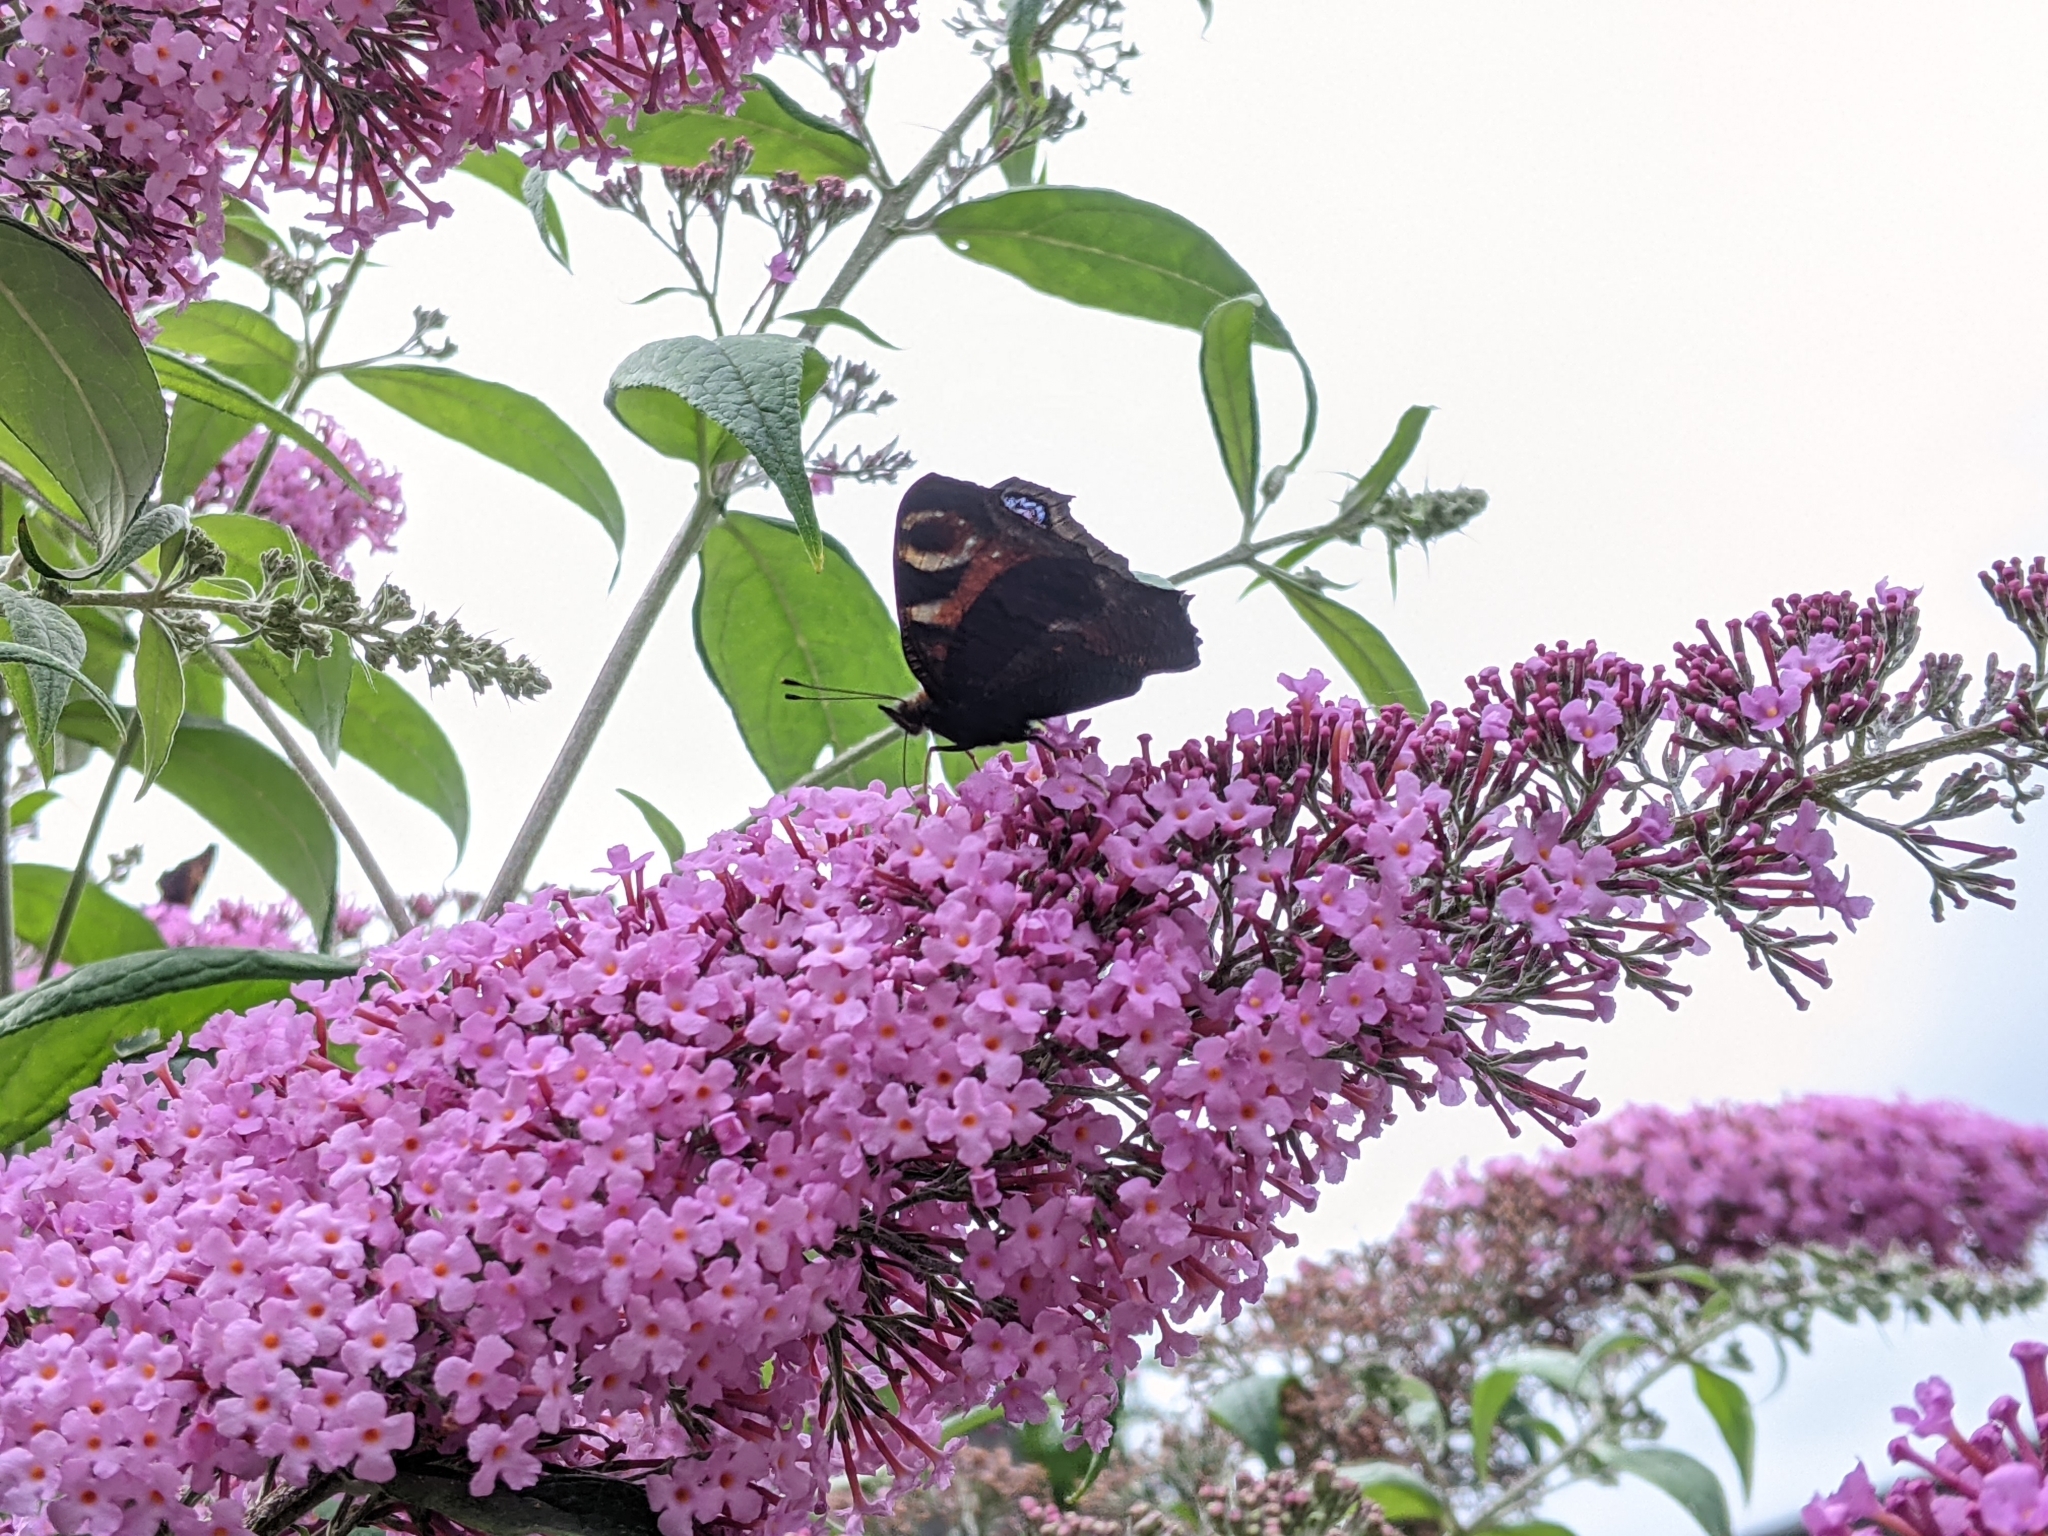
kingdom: Animalia
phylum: Arthropoda
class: Insecta
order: Lepidoptera
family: Nymphalidae
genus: Aglais
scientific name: Aglais io
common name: Peacock
